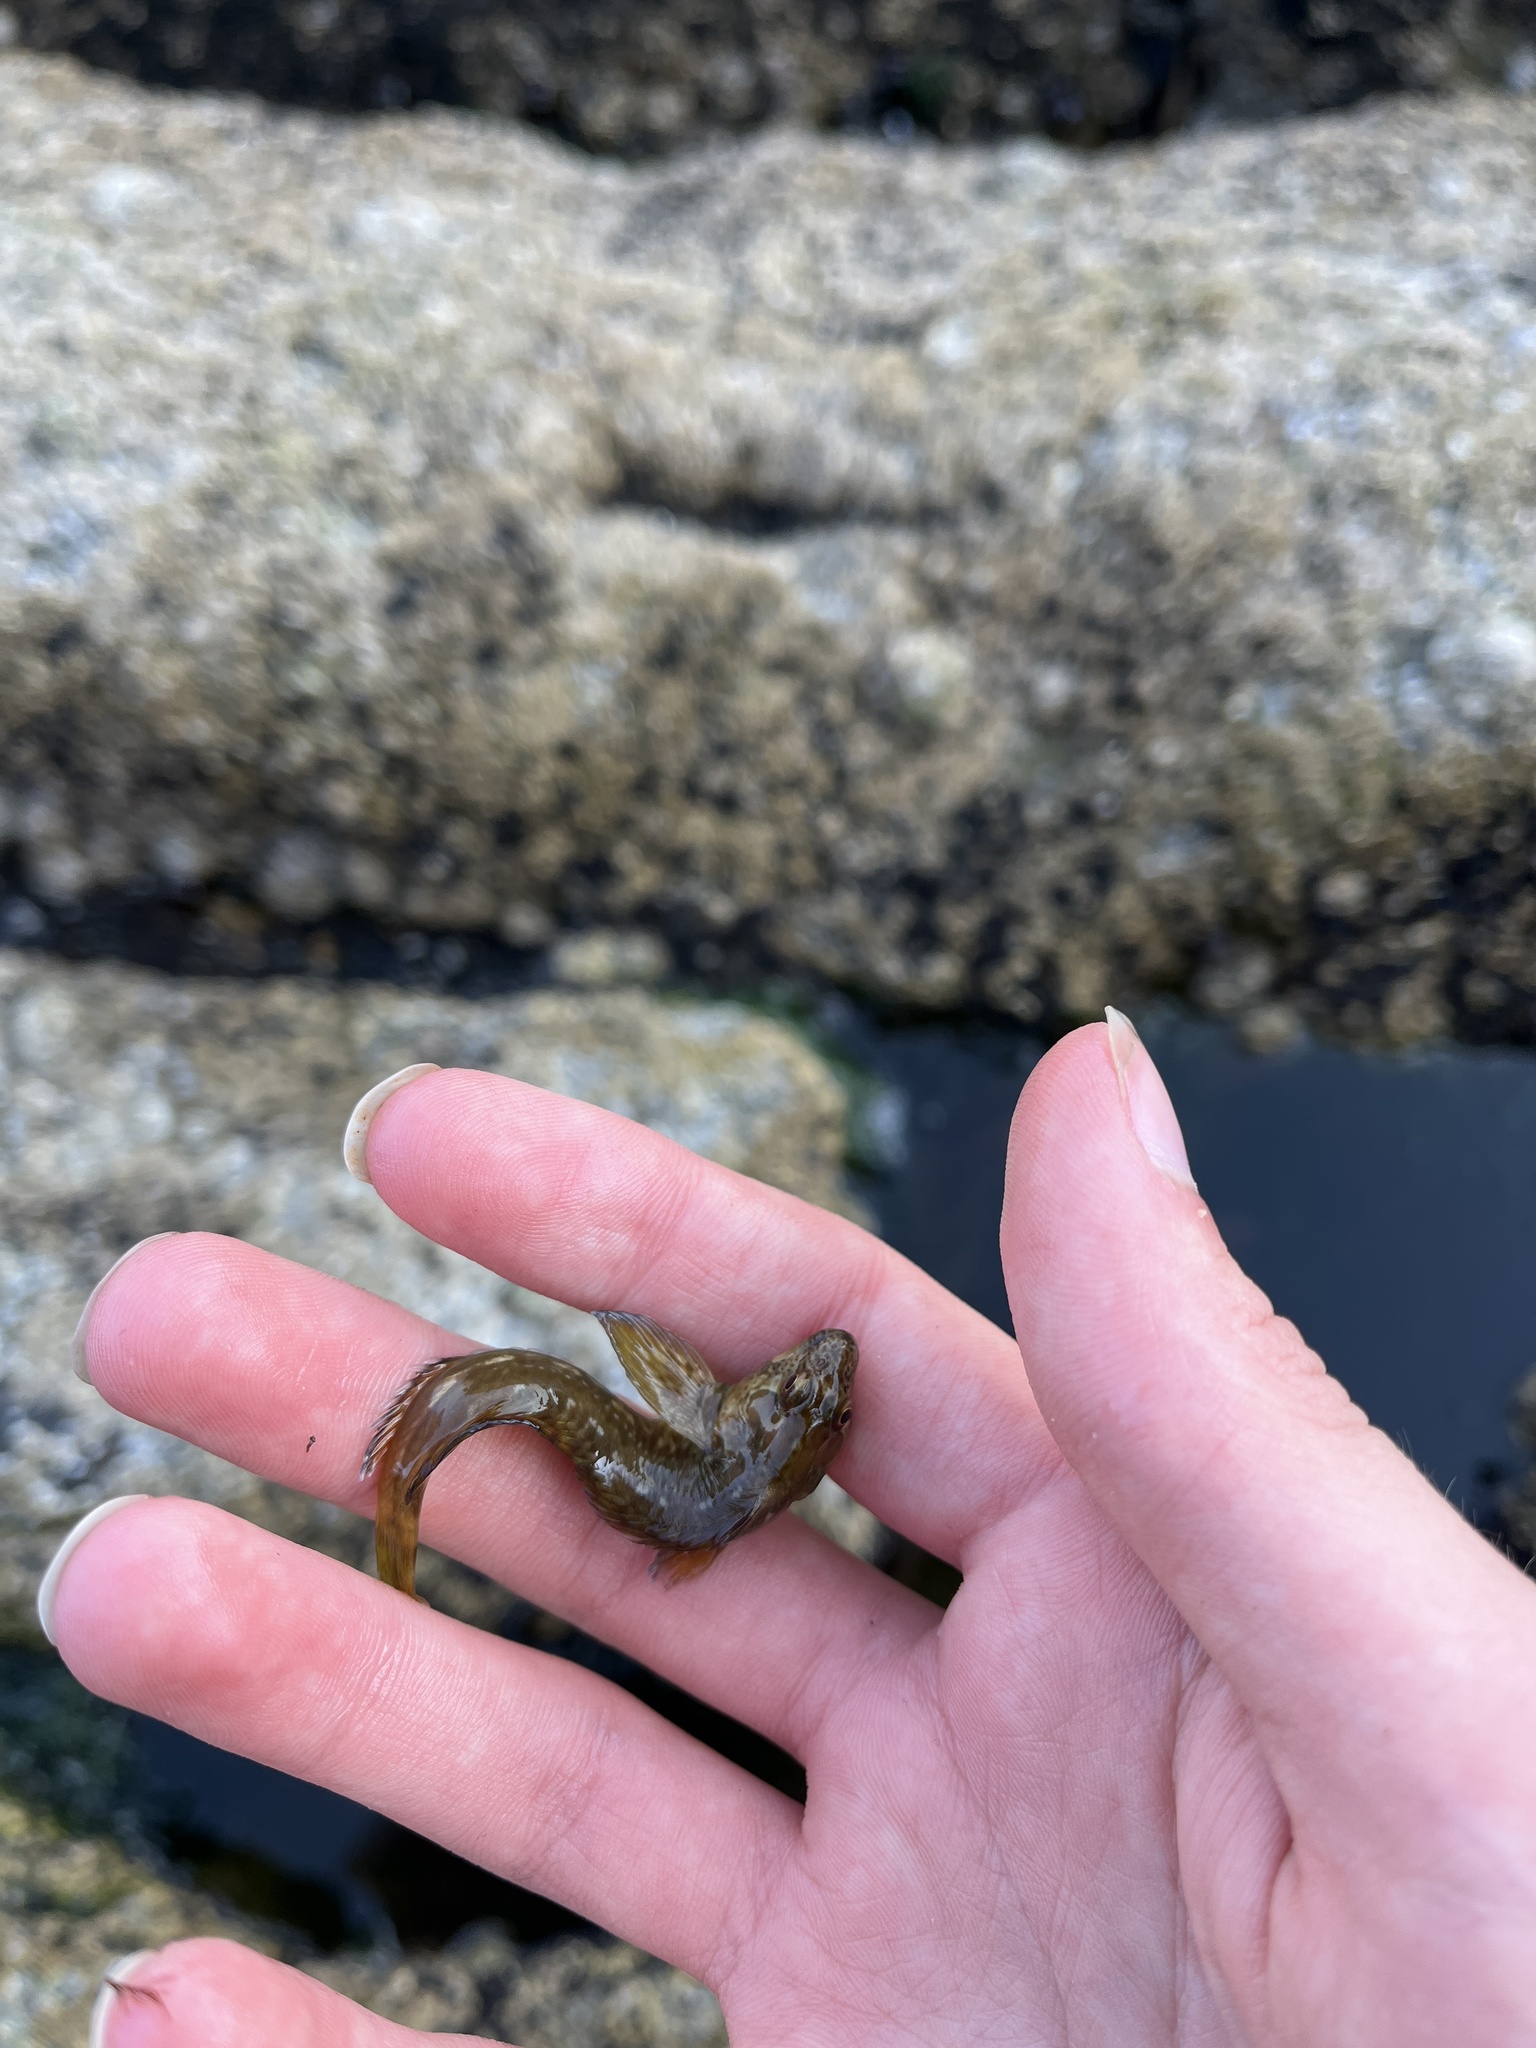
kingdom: Animalia
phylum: Chordata
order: Perciformes
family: Blenniidae
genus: Lipophrys
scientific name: Lipophrys pholis
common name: Shanny
